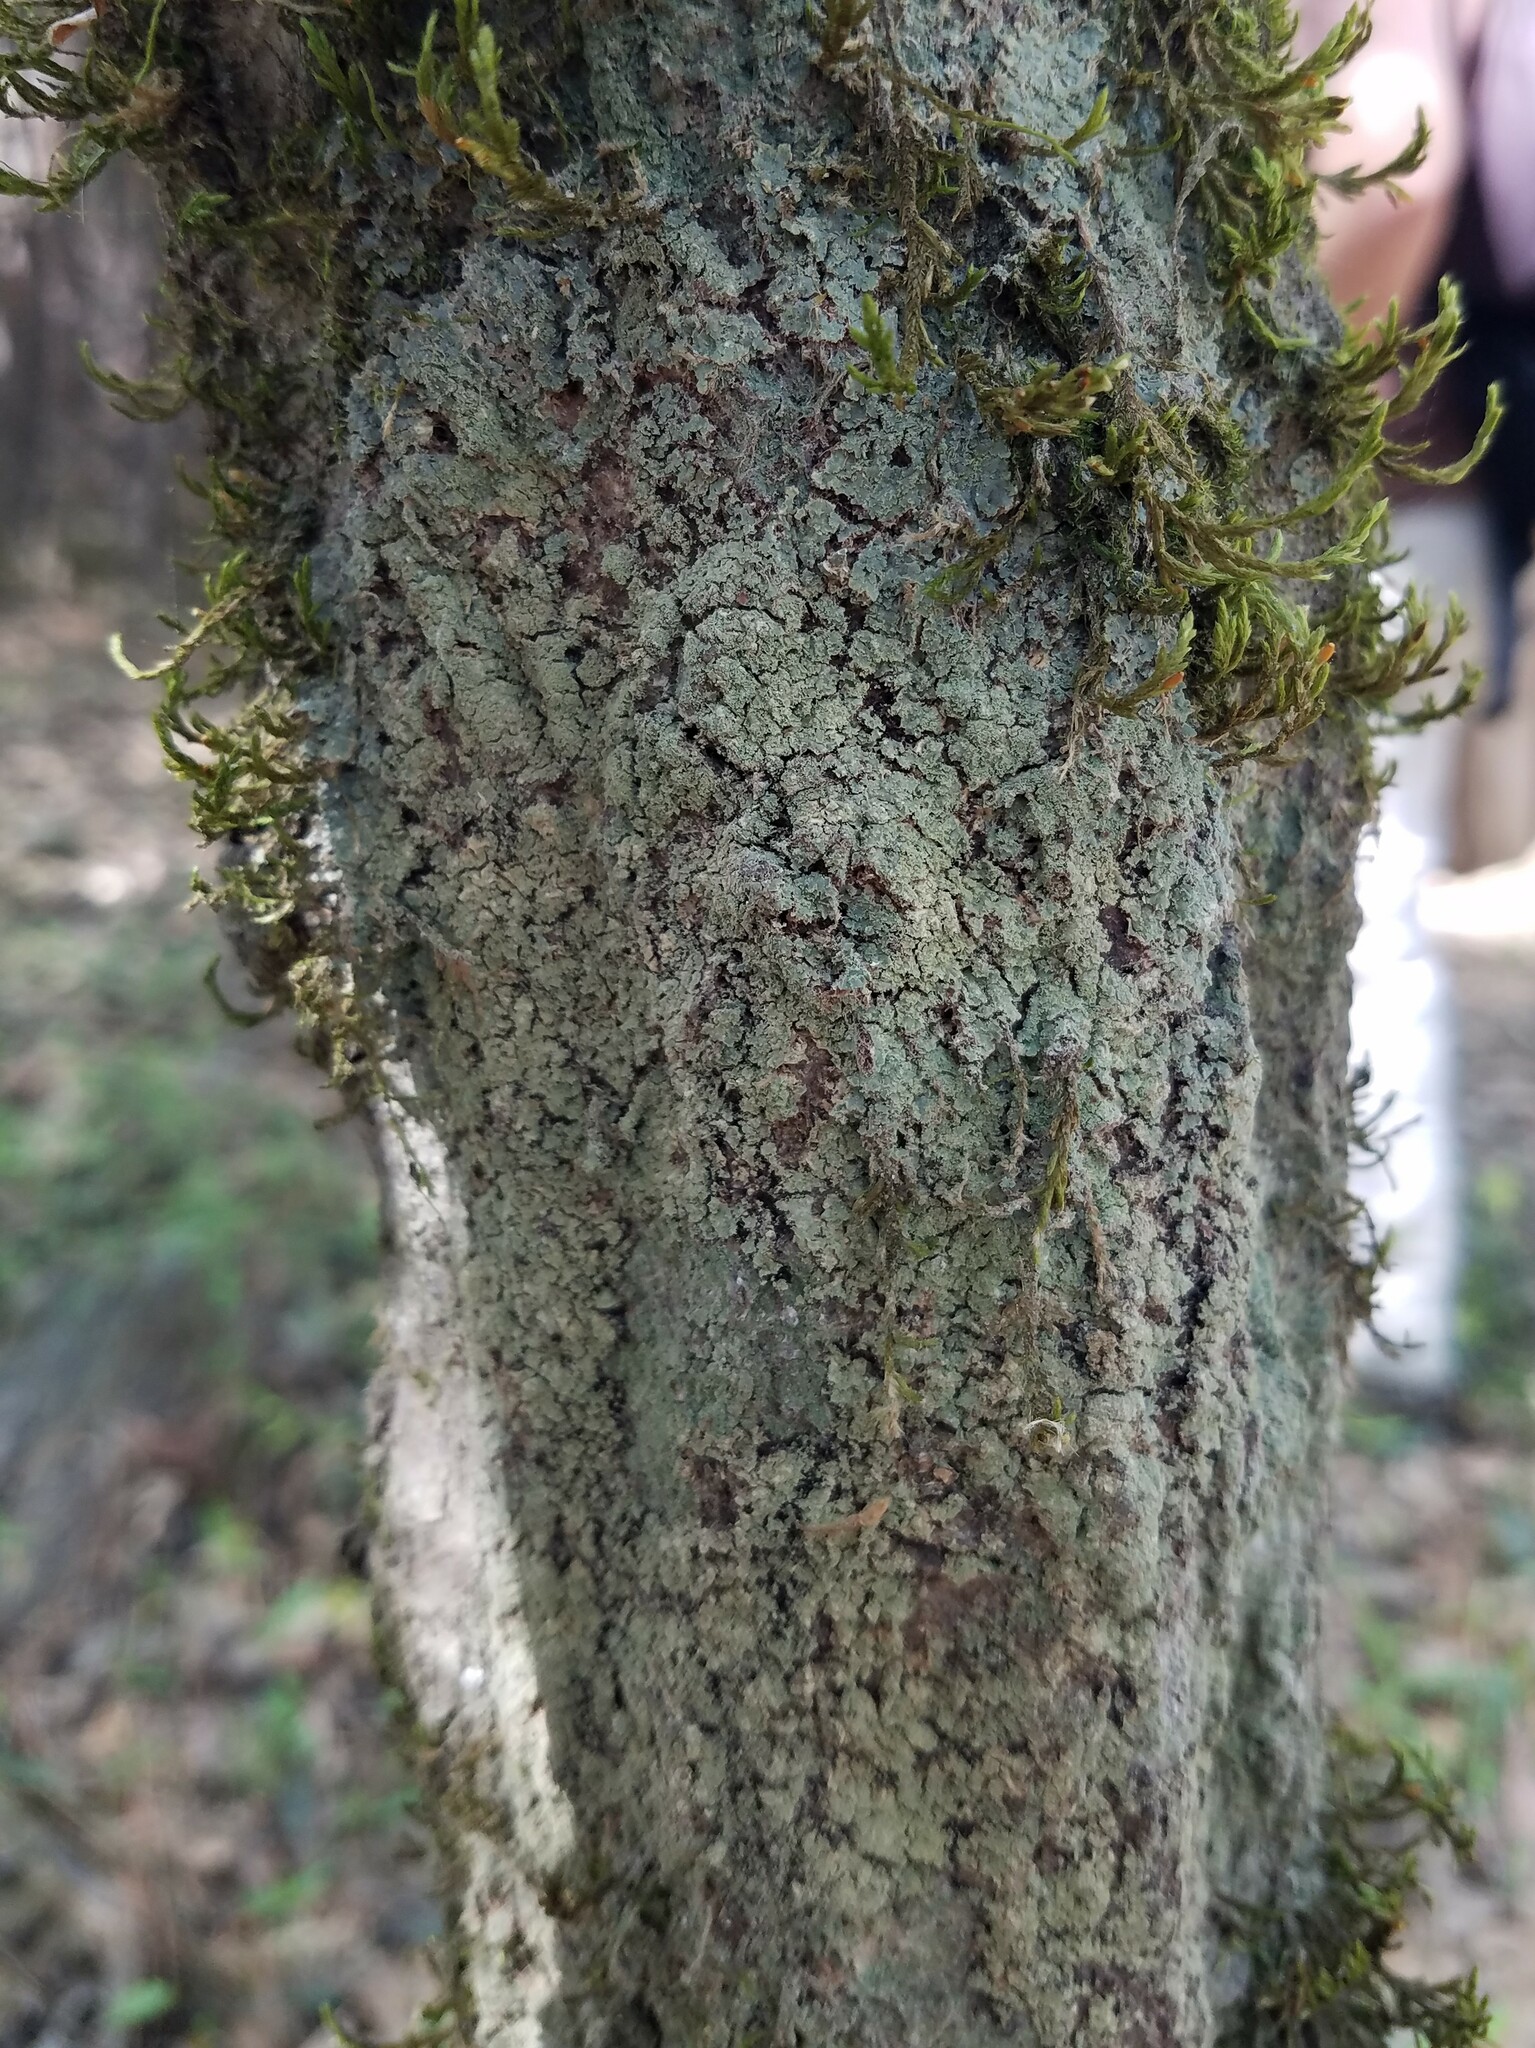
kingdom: Fungi
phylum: Ascomycota
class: Lecanoromycetes
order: Lecanorales
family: Ramalinaceae
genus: Phyllopsora
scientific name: Phyllopsora parvifolia
